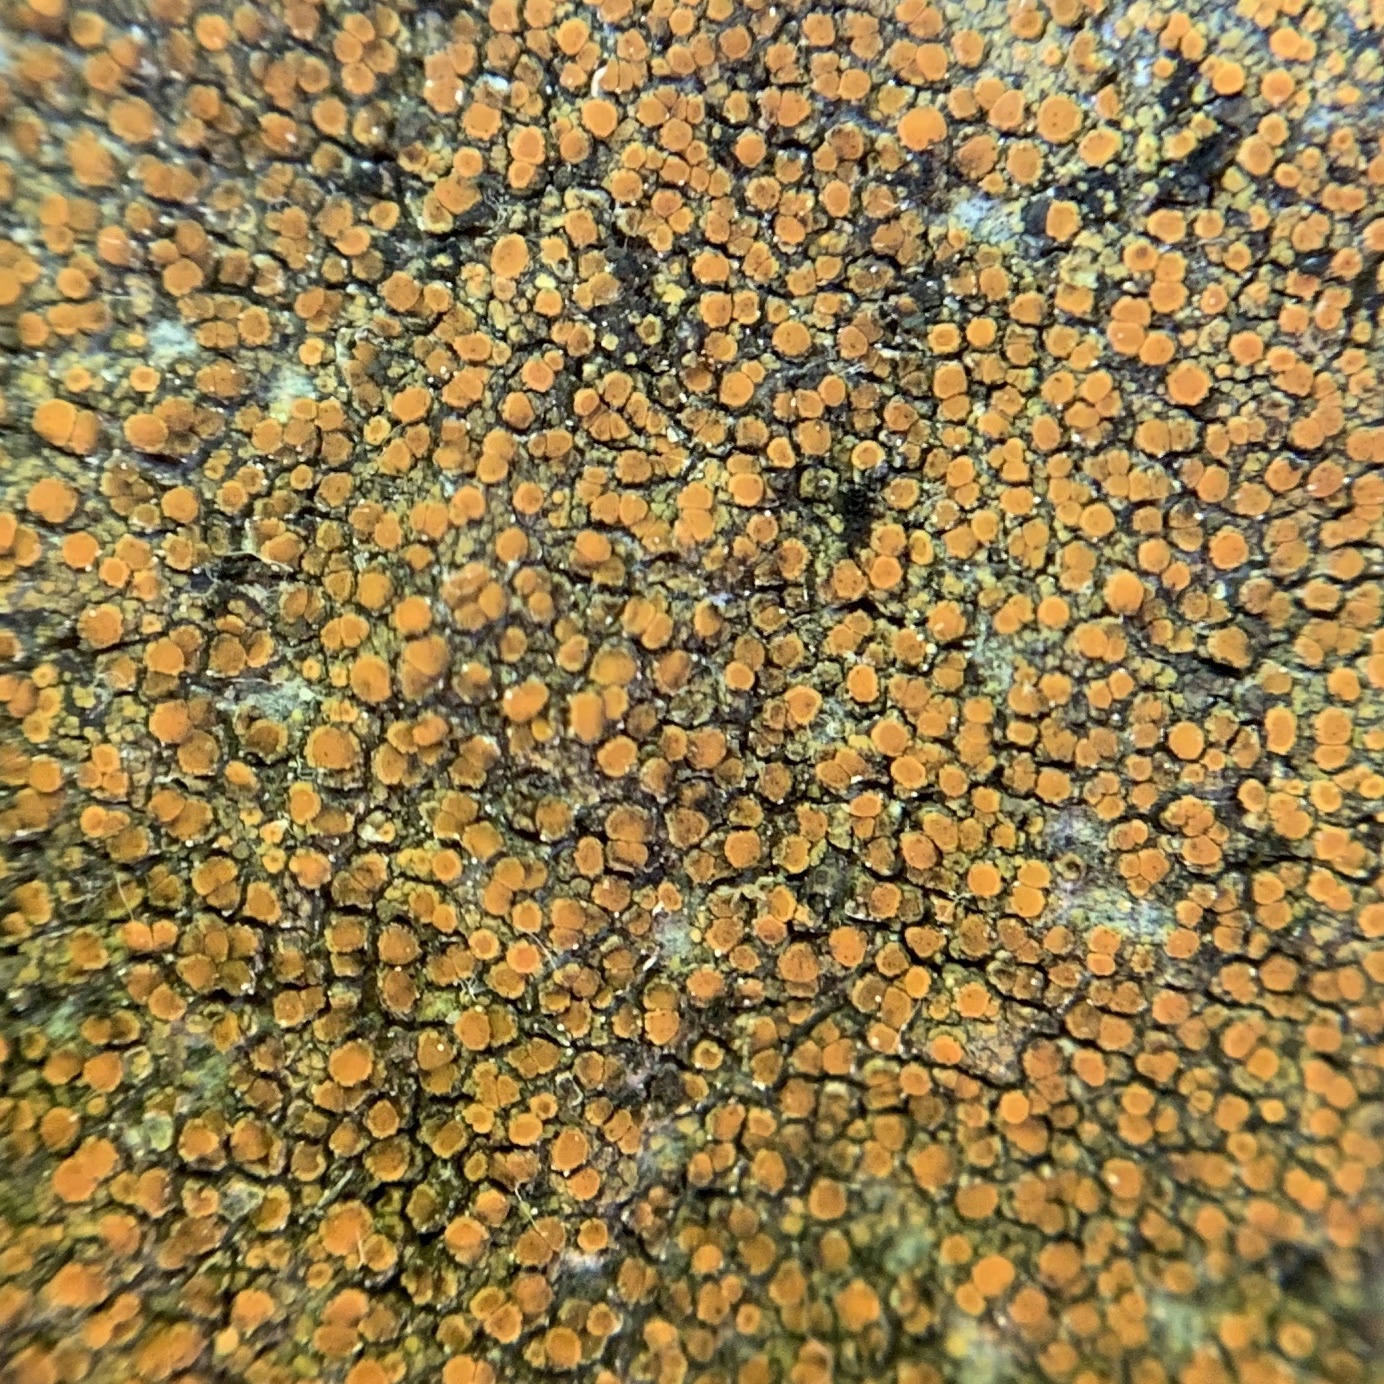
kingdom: Fungi
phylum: Ascomycota
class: Lecanoromycetes
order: Teloschistales
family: Teloschistaceae
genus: Xanthocarpia
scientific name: Xanthocarpia feracissima
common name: Sidewalk firedot
